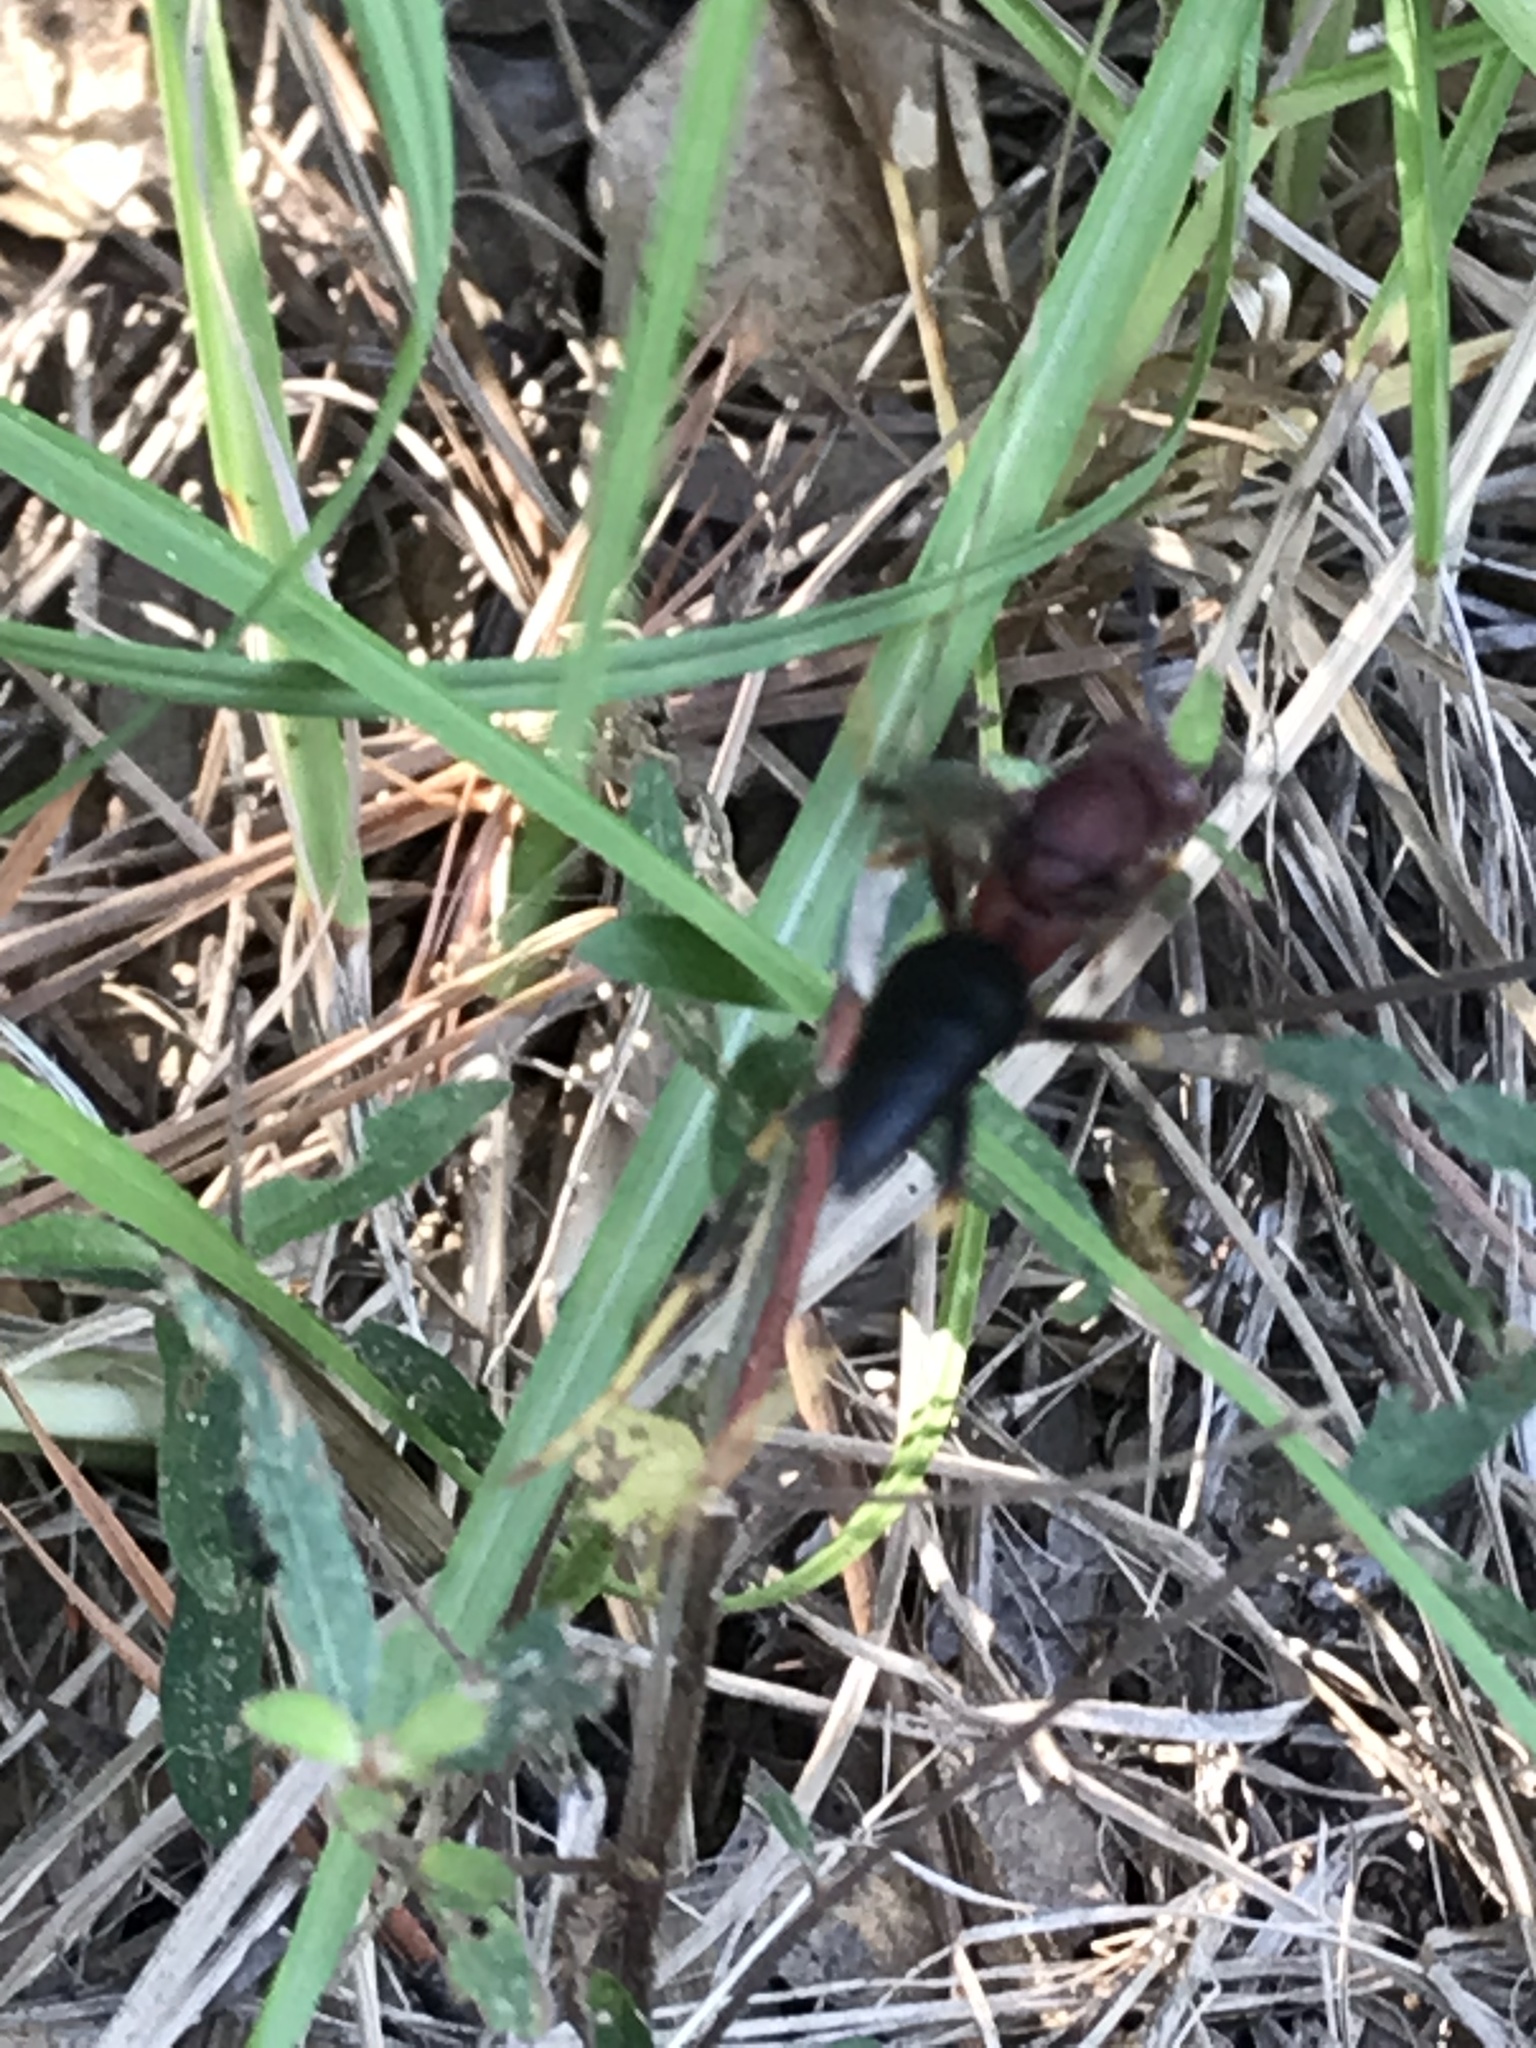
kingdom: Animalia
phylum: Arthropoda
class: Insecta
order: Hymenoptera
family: Eumenidae
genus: Polistes
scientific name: Polistes metricus
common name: Metric paper wasp
